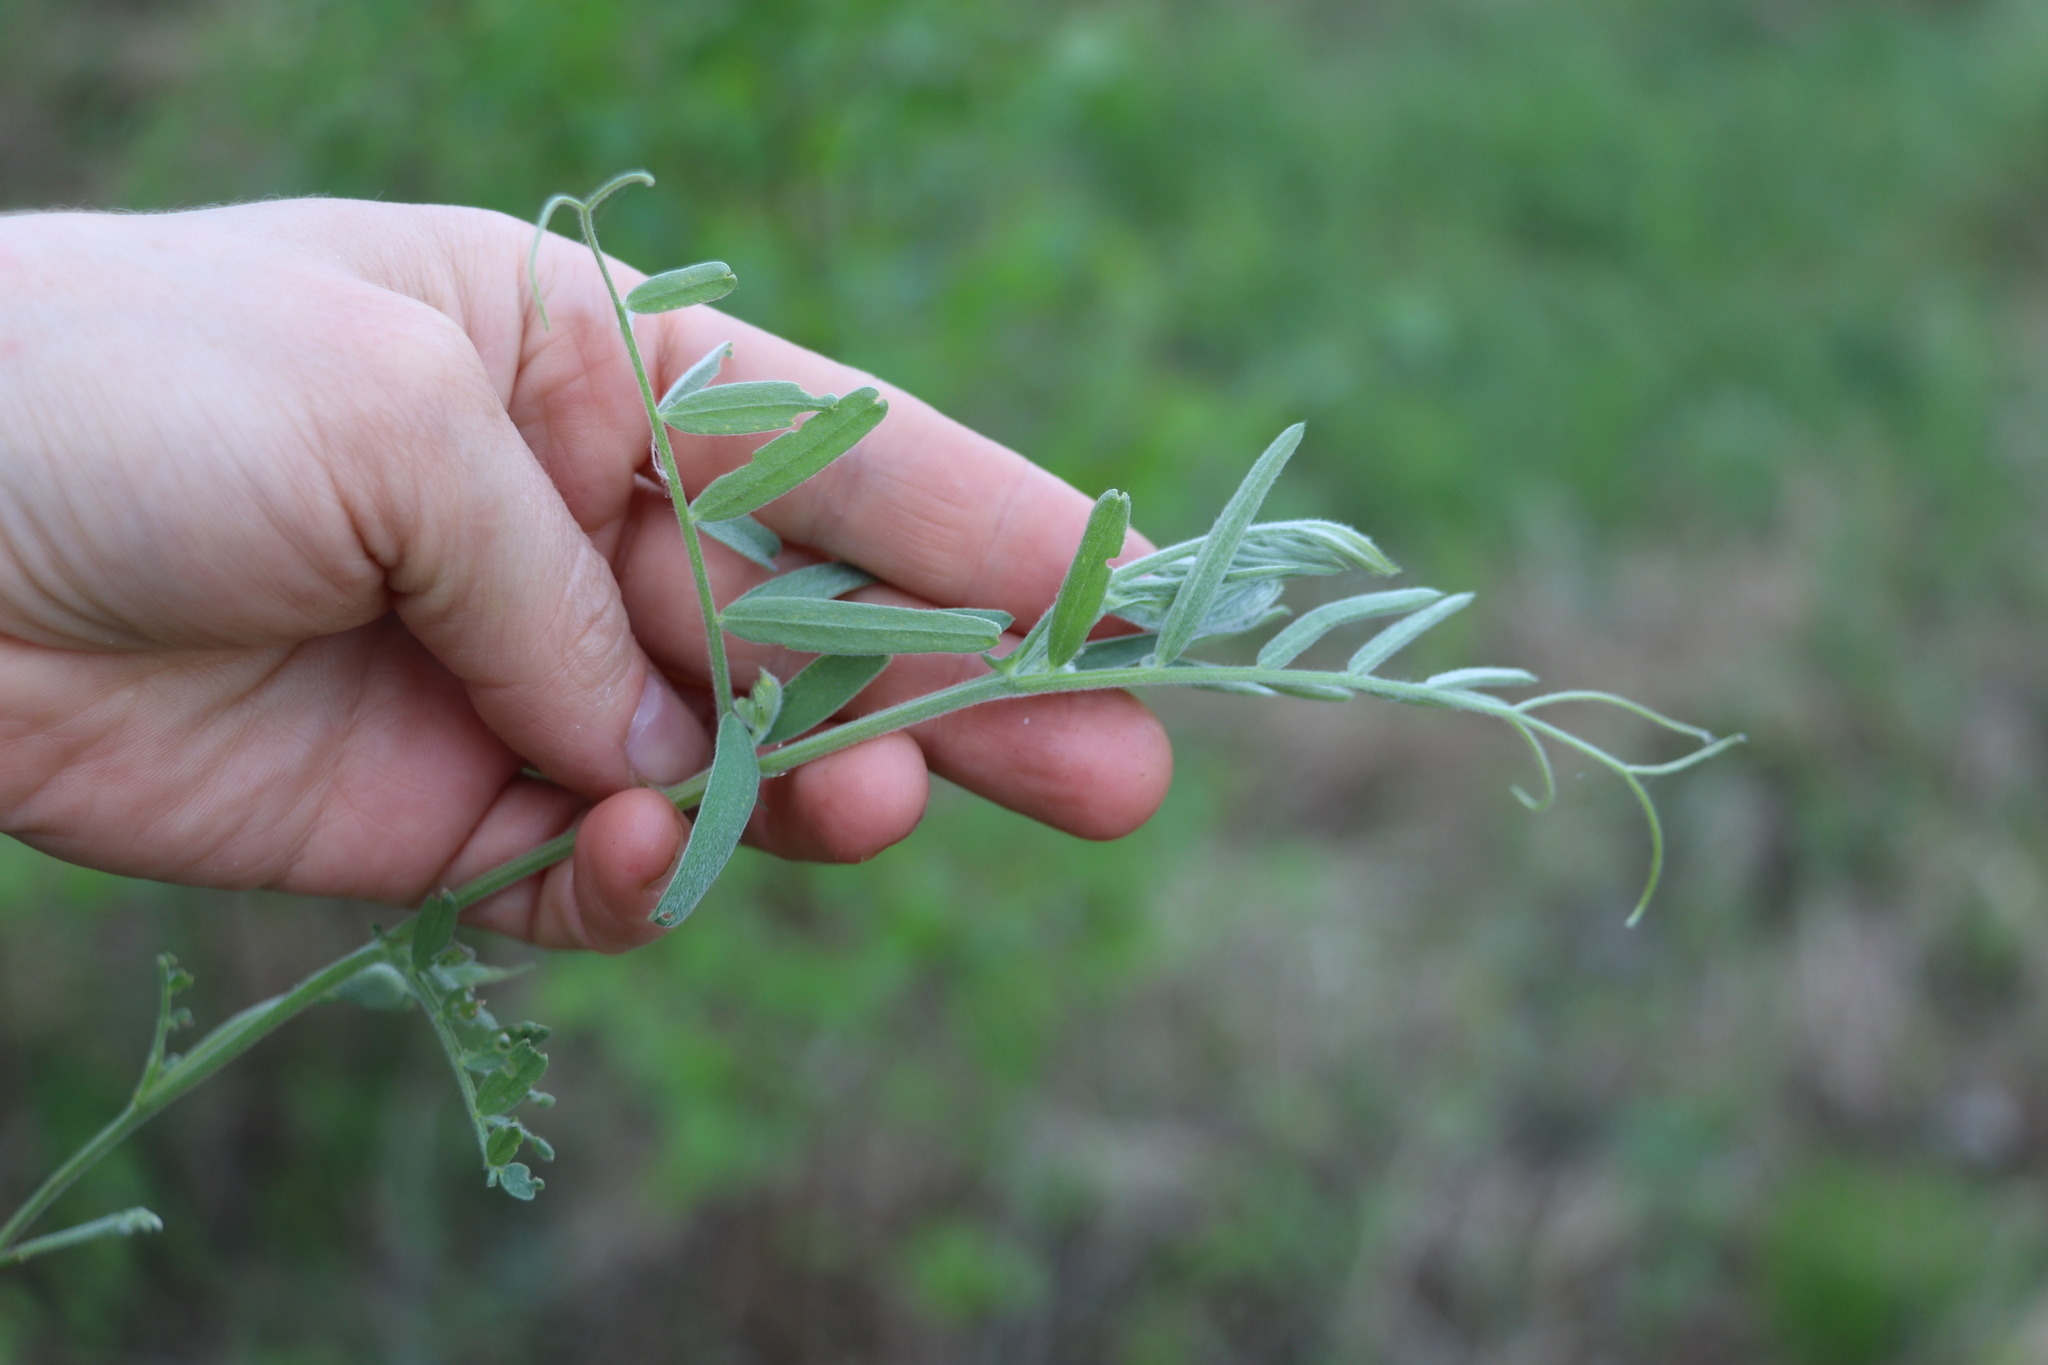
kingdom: Plantae
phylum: Tracheophyta
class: Magnoliopsida
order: Fabales
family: Fabaceae
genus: Vicia
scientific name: Vicia cracca
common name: Bird vetch
